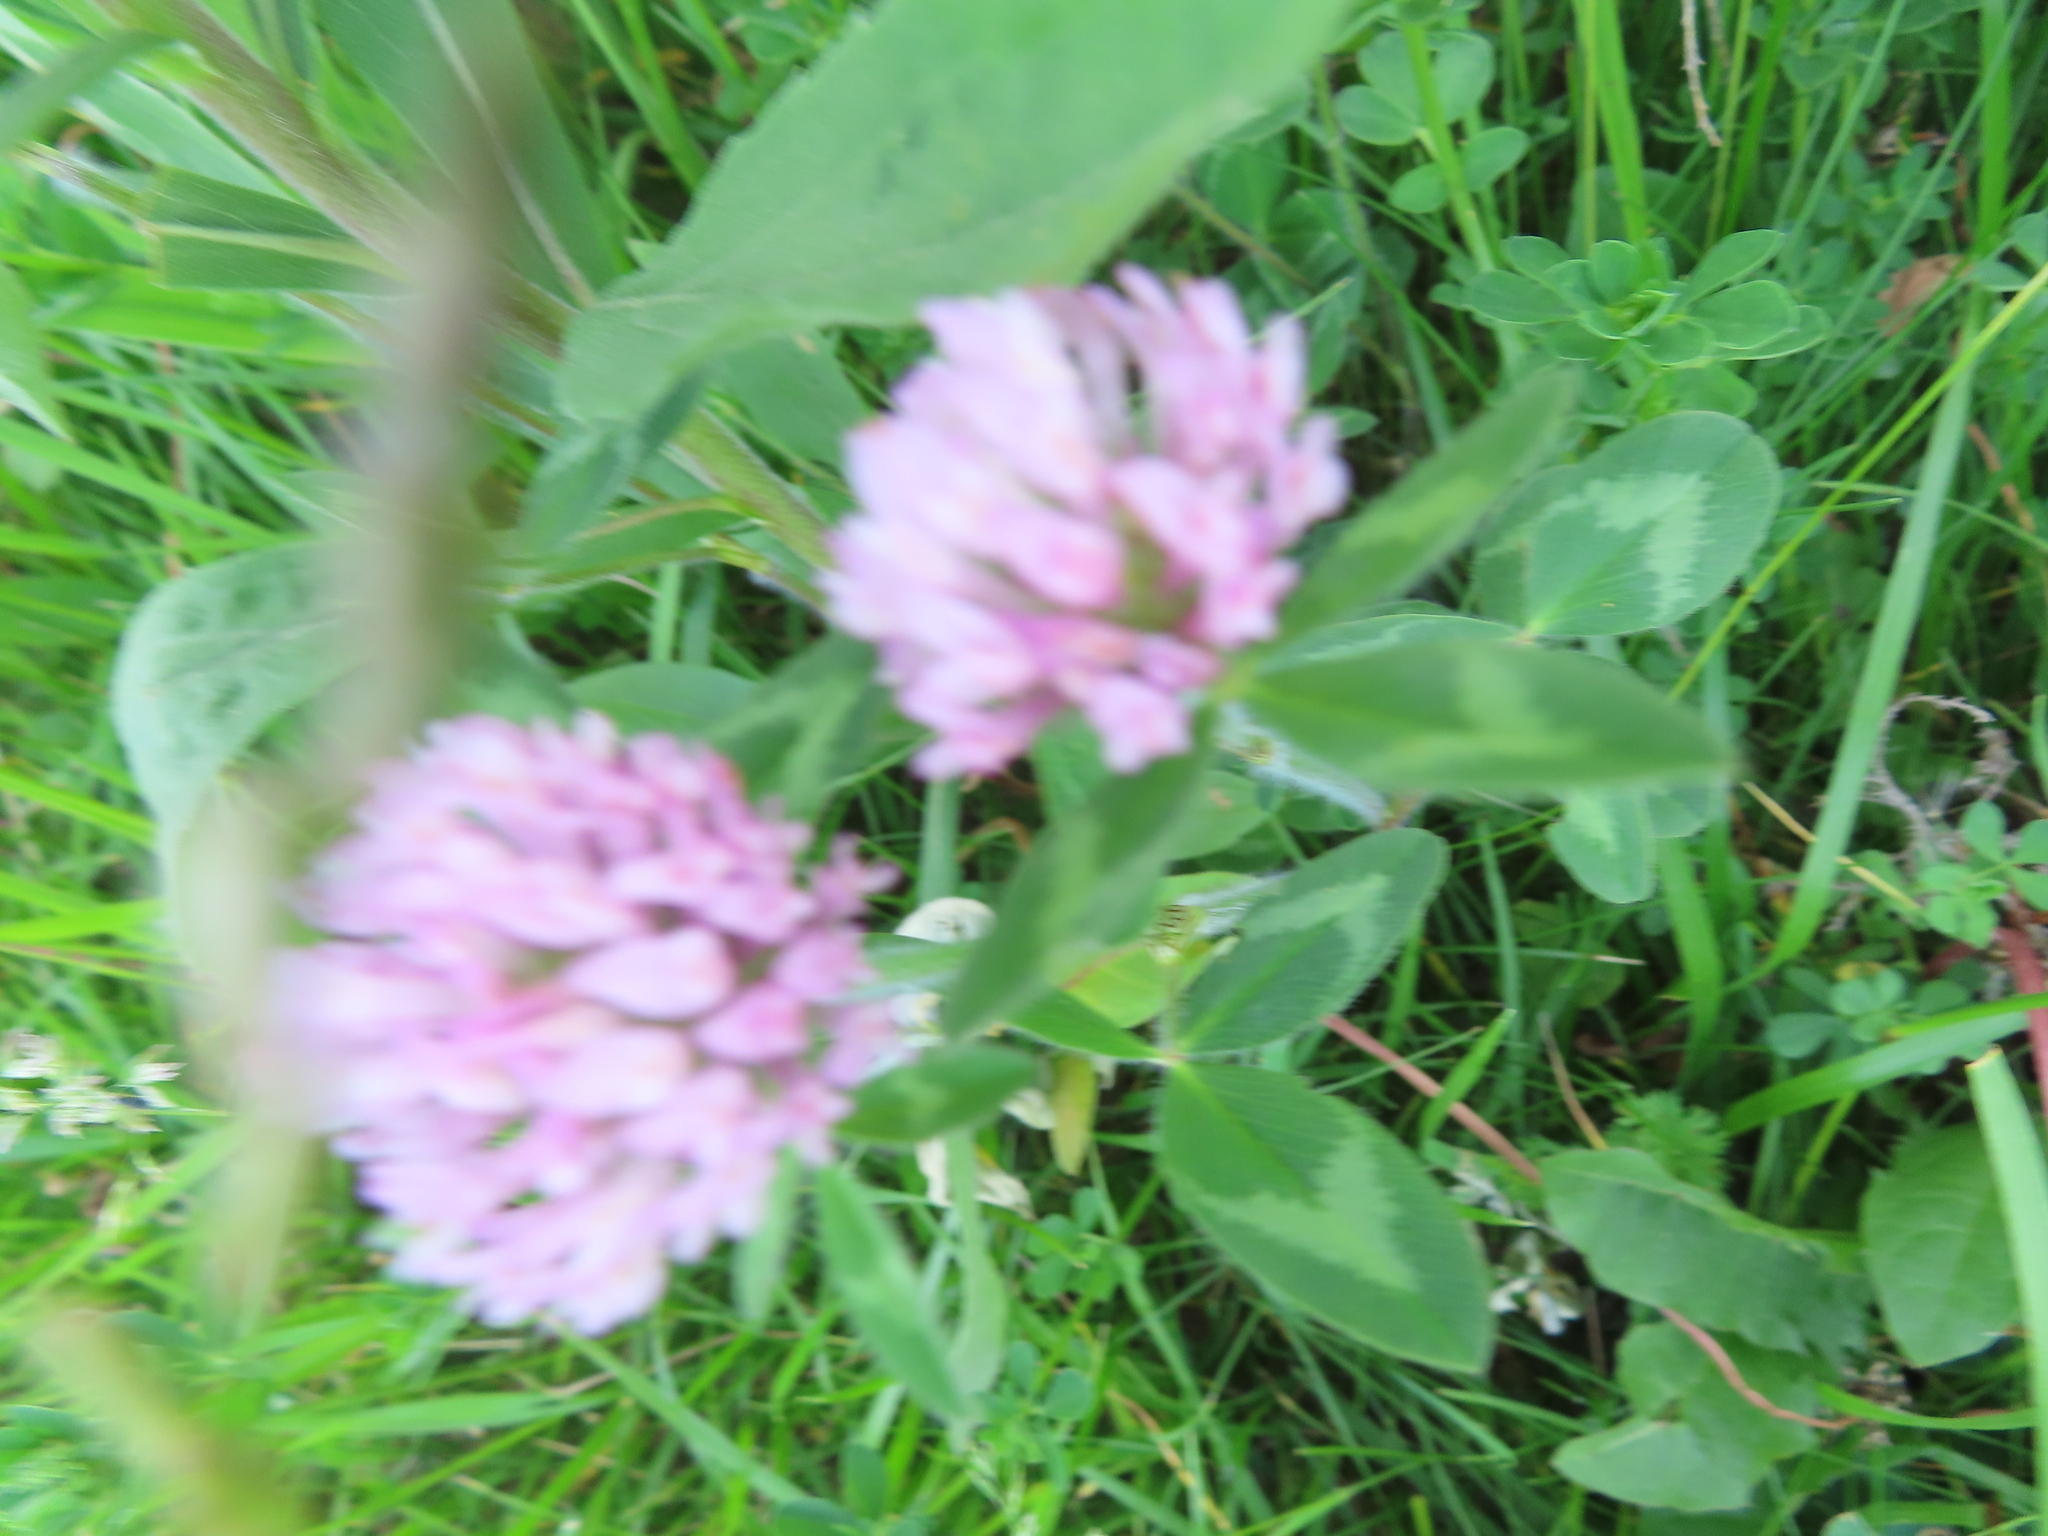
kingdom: Plantae
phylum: Tracheophyta
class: Magnoliopsida
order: Fabales
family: Fabaceae
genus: Trifolium
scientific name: Trifolium pratense
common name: Red clover
